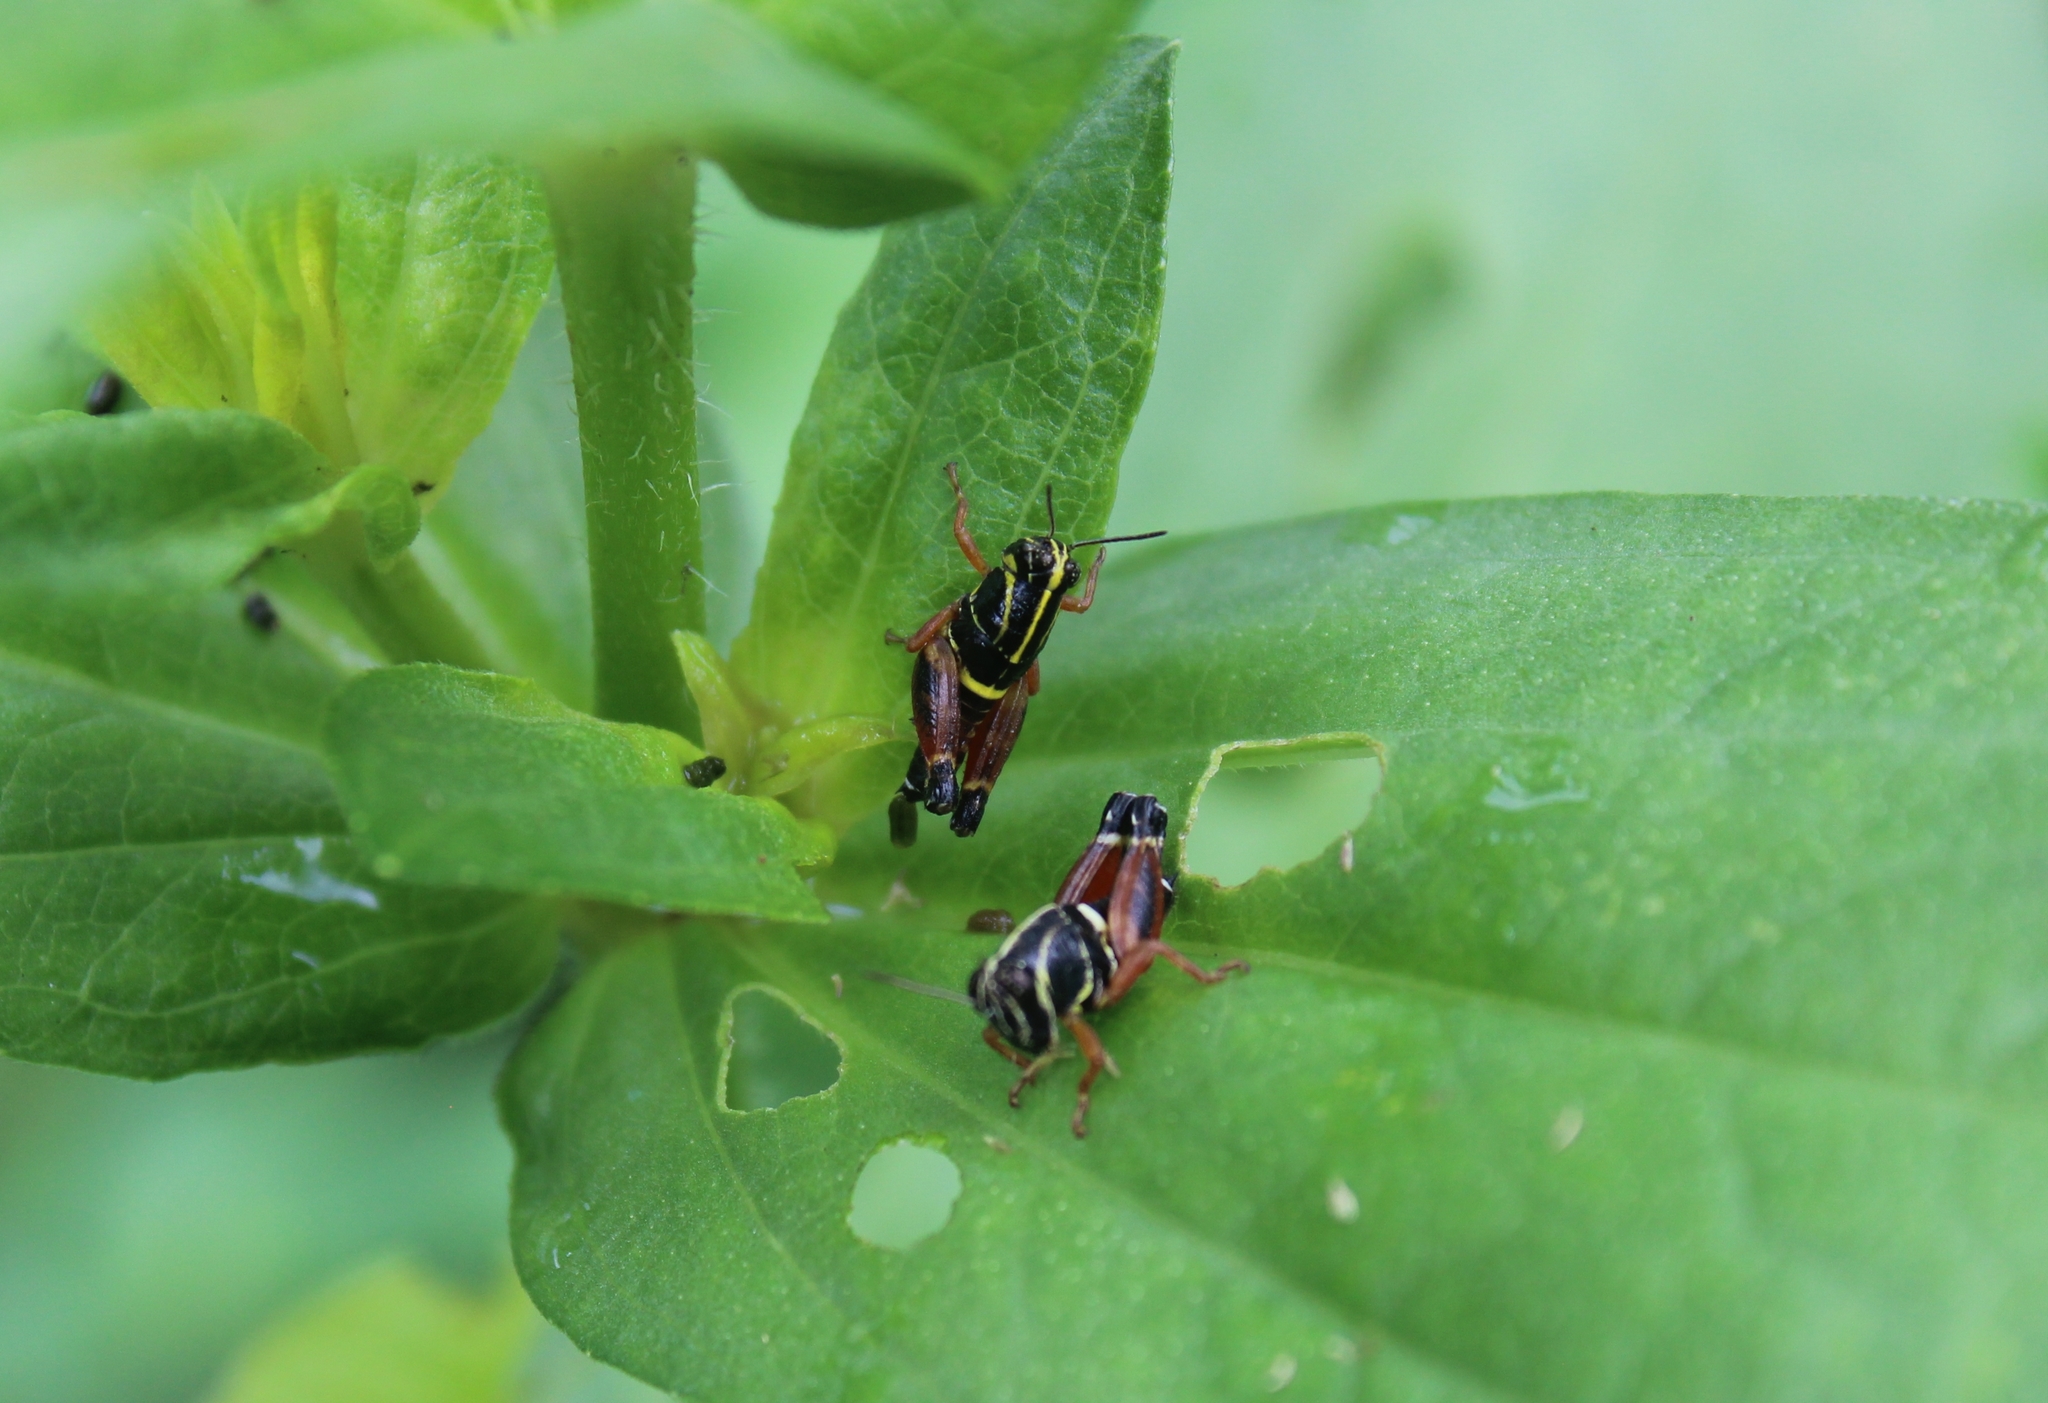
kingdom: Animalia
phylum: Arthropoda
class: Insecta
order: Orthoptera
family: Acrididae
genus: Aidemona
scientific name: Aidemona azteca
